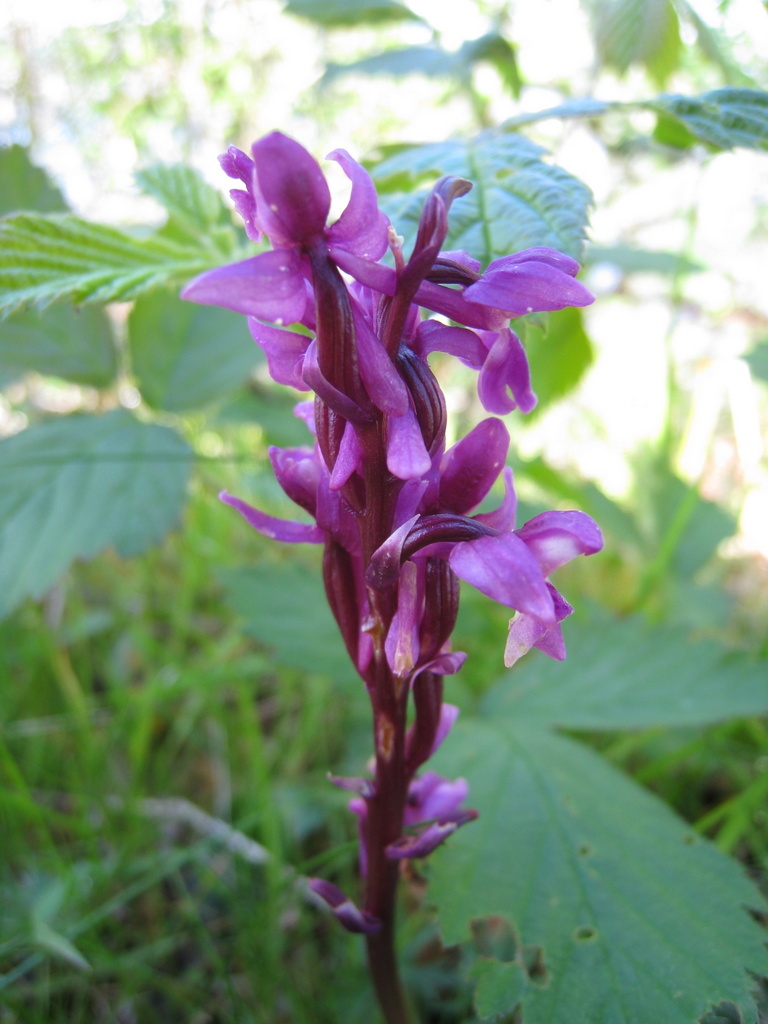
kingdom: Plantae
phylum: Tracheophyta
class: Liliopsida
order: Asparagales
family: Orchidaceae
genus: Orchis
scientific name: Orchis mascula
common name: Early-purple orchid
